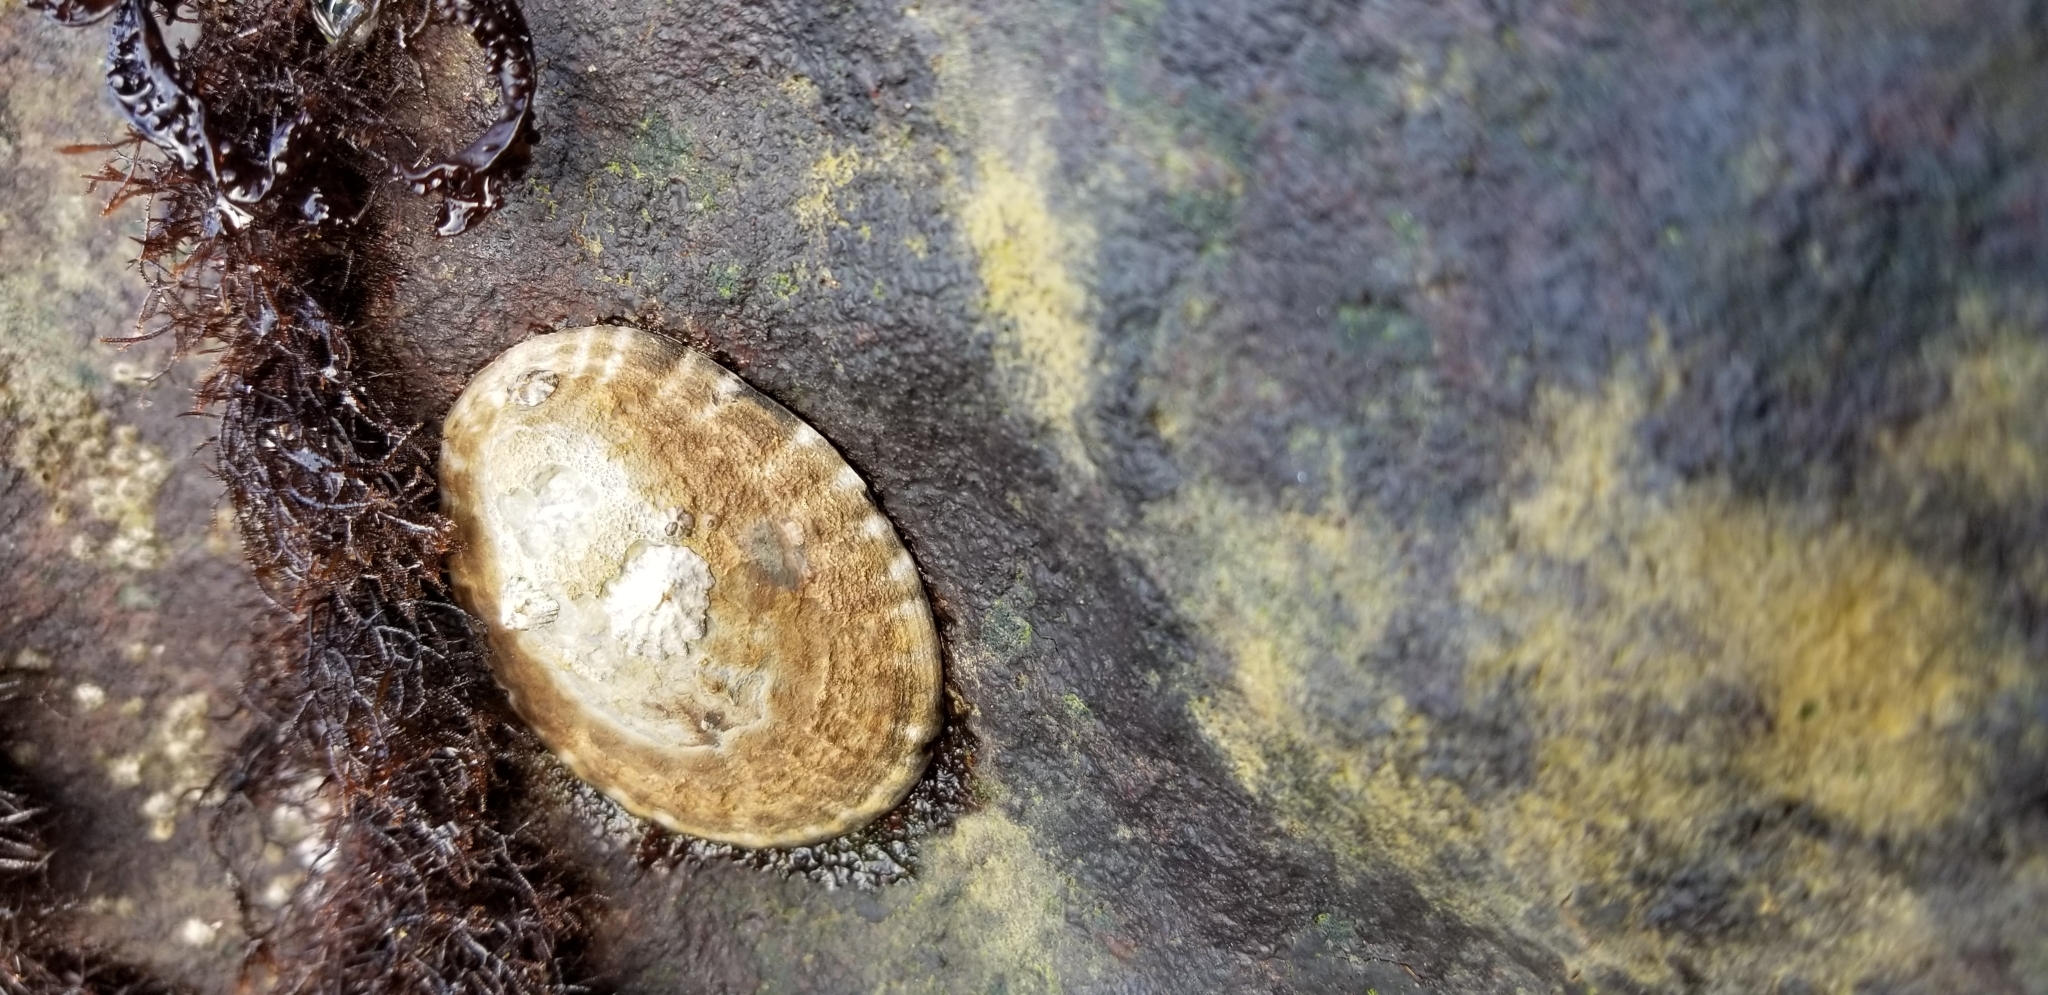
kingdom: Animalia
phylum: Mollusca
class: Gastropoda
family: Lottiidae
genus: Lottia
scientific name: Lottia gigantea
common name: Owl limpet
